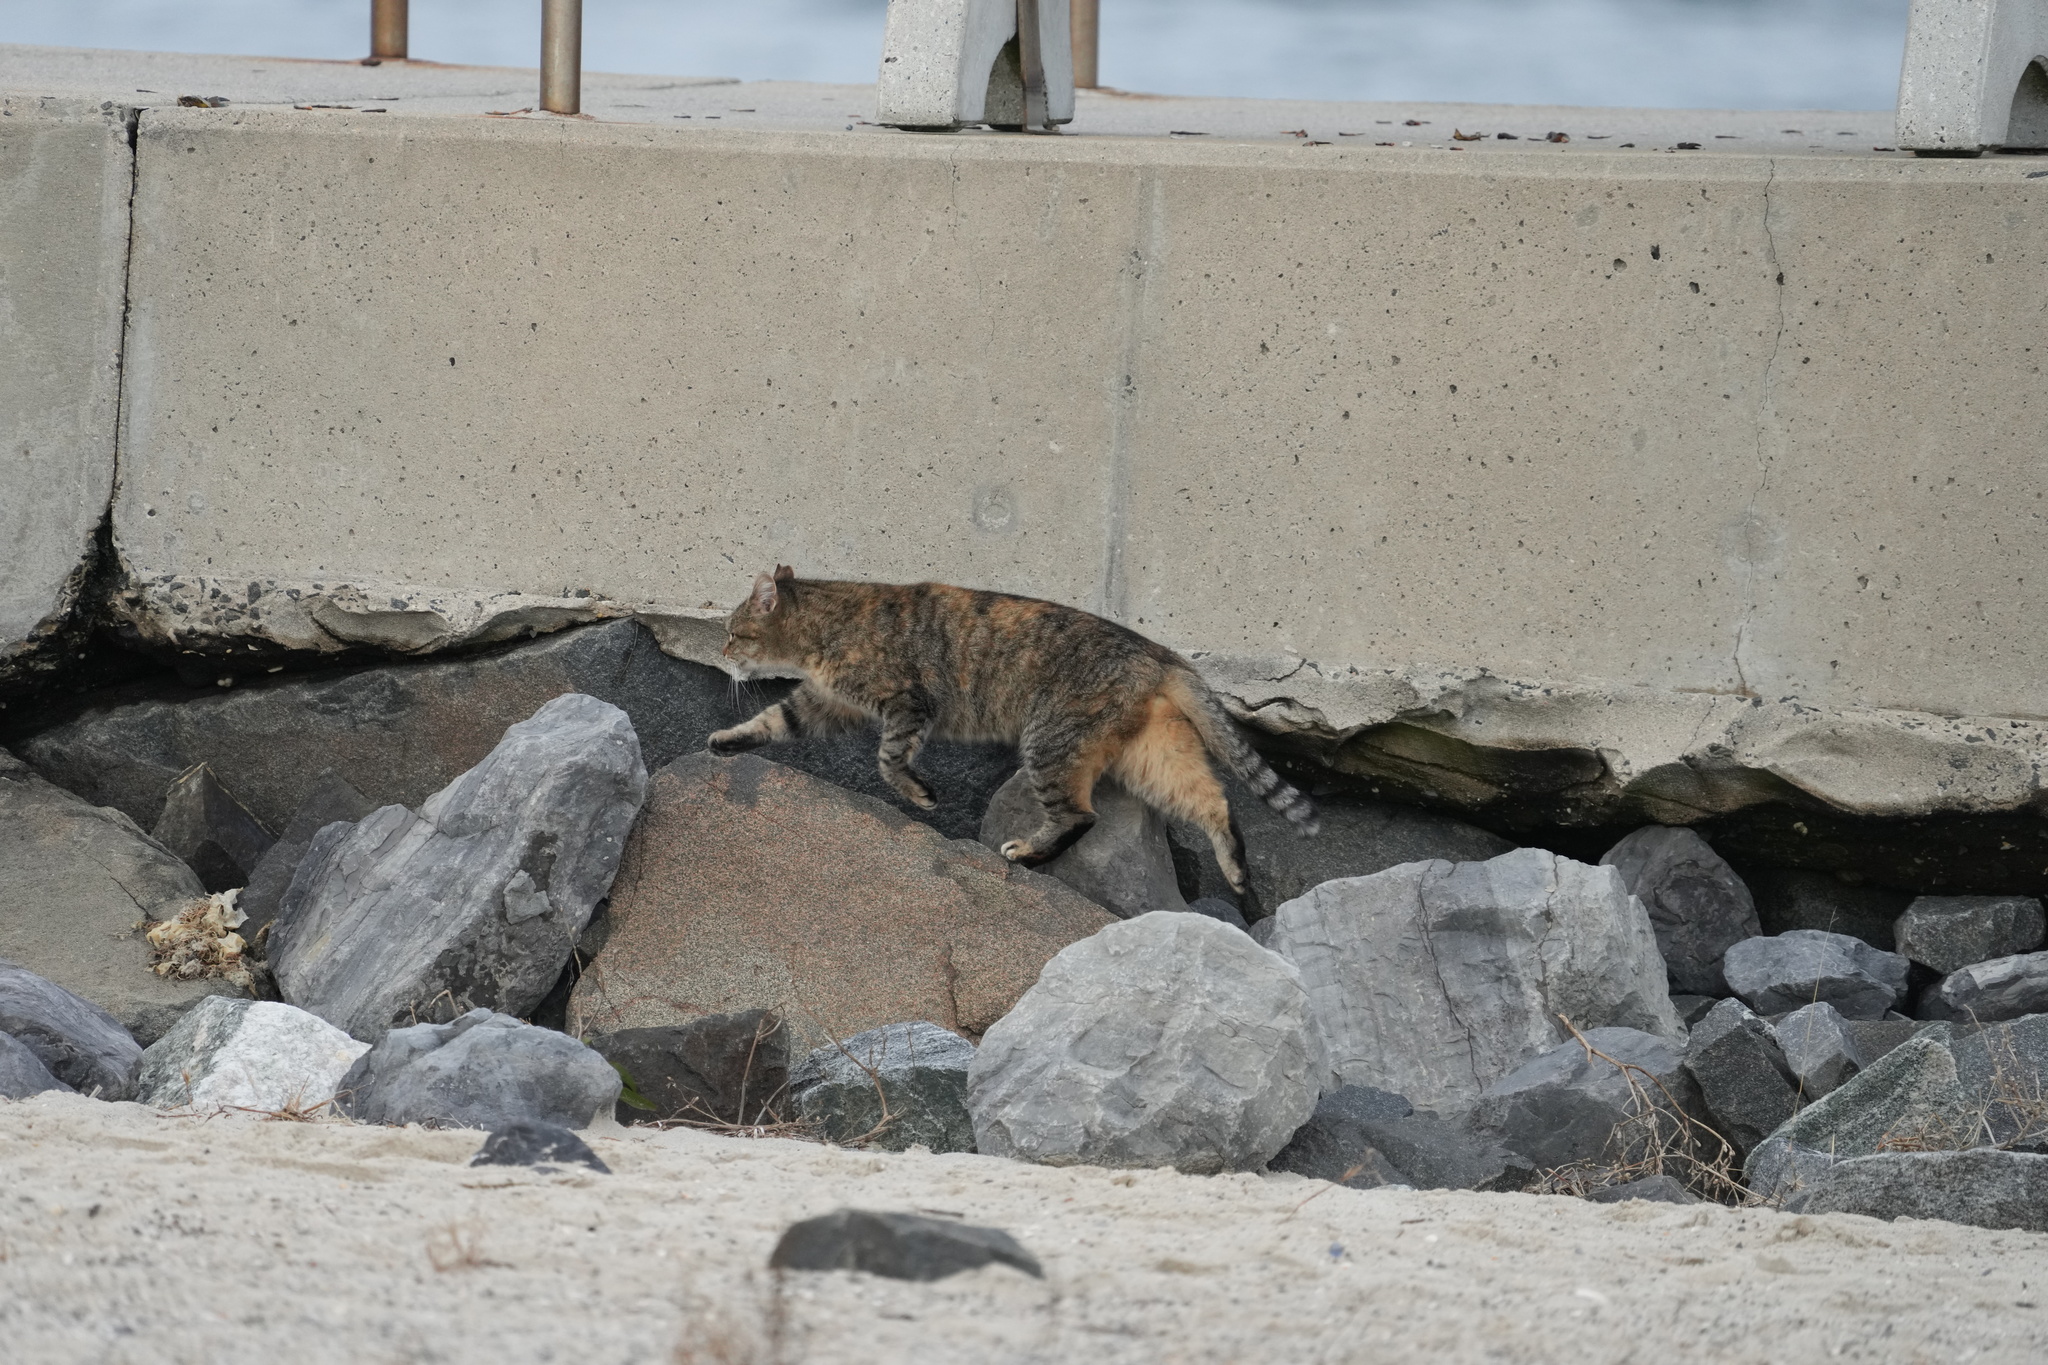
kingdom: Animalia
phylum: Chordata
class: Mammalia
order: Carnivora
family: Felidae
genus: Felis
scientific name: Felis catus
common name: Domestic cat
